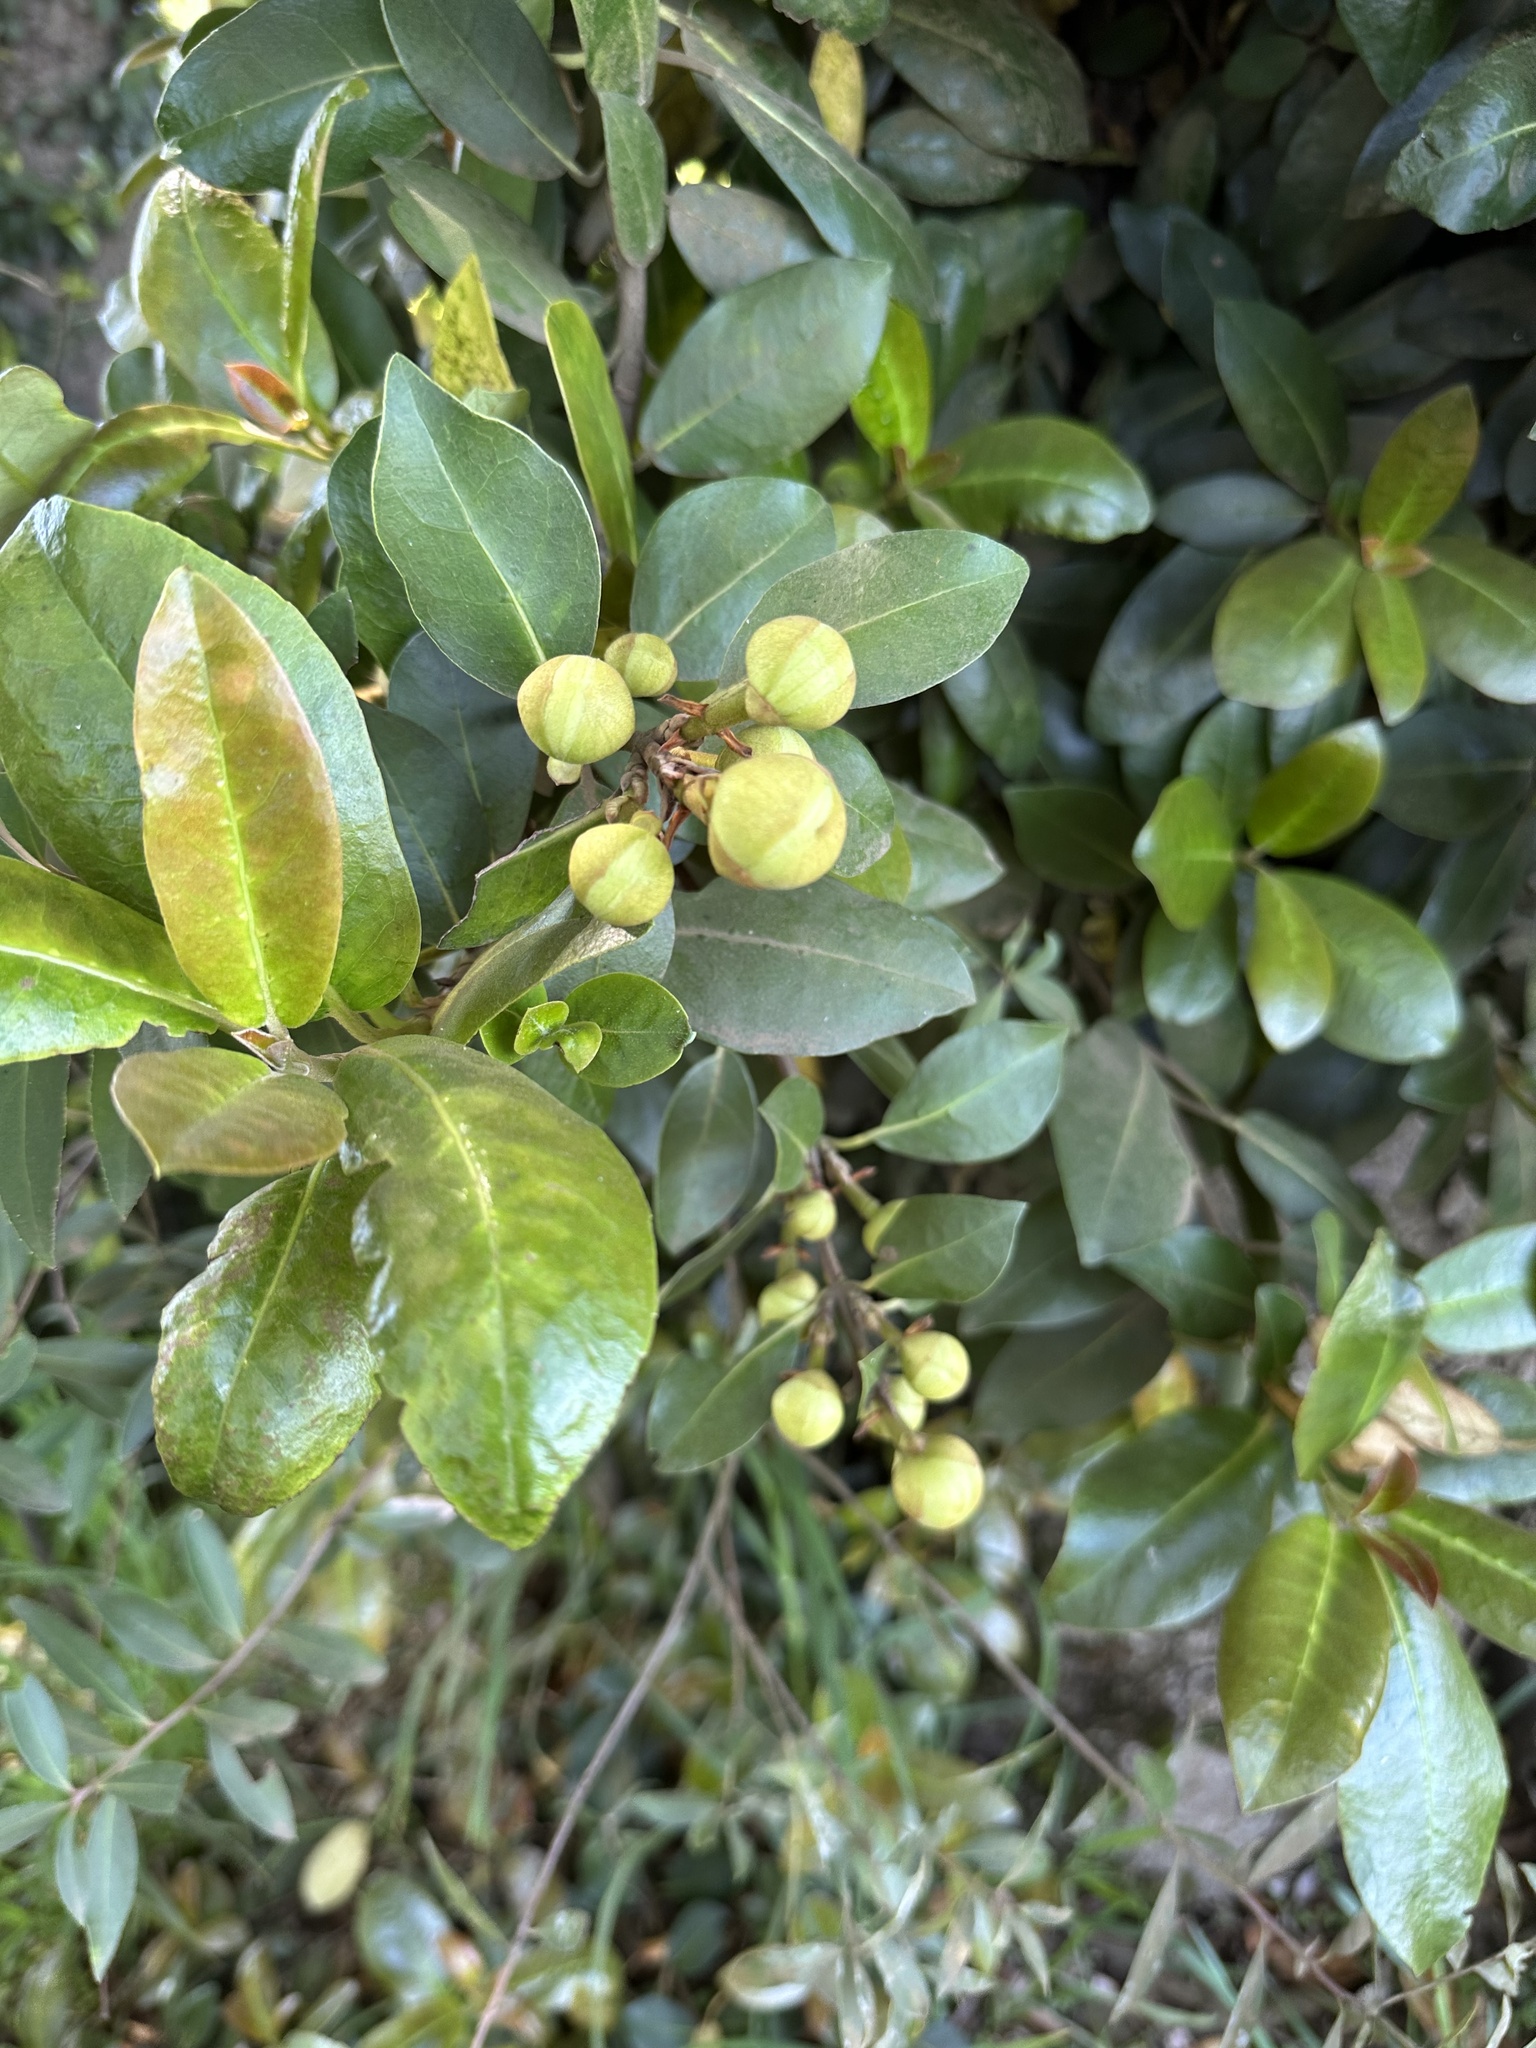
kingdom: Plantae
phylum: Tracheophyta
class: Magnoliopsida
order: Cornales
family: Hydrangeaceae
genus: Hydrangea
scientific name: Hydrangea serratifolia
